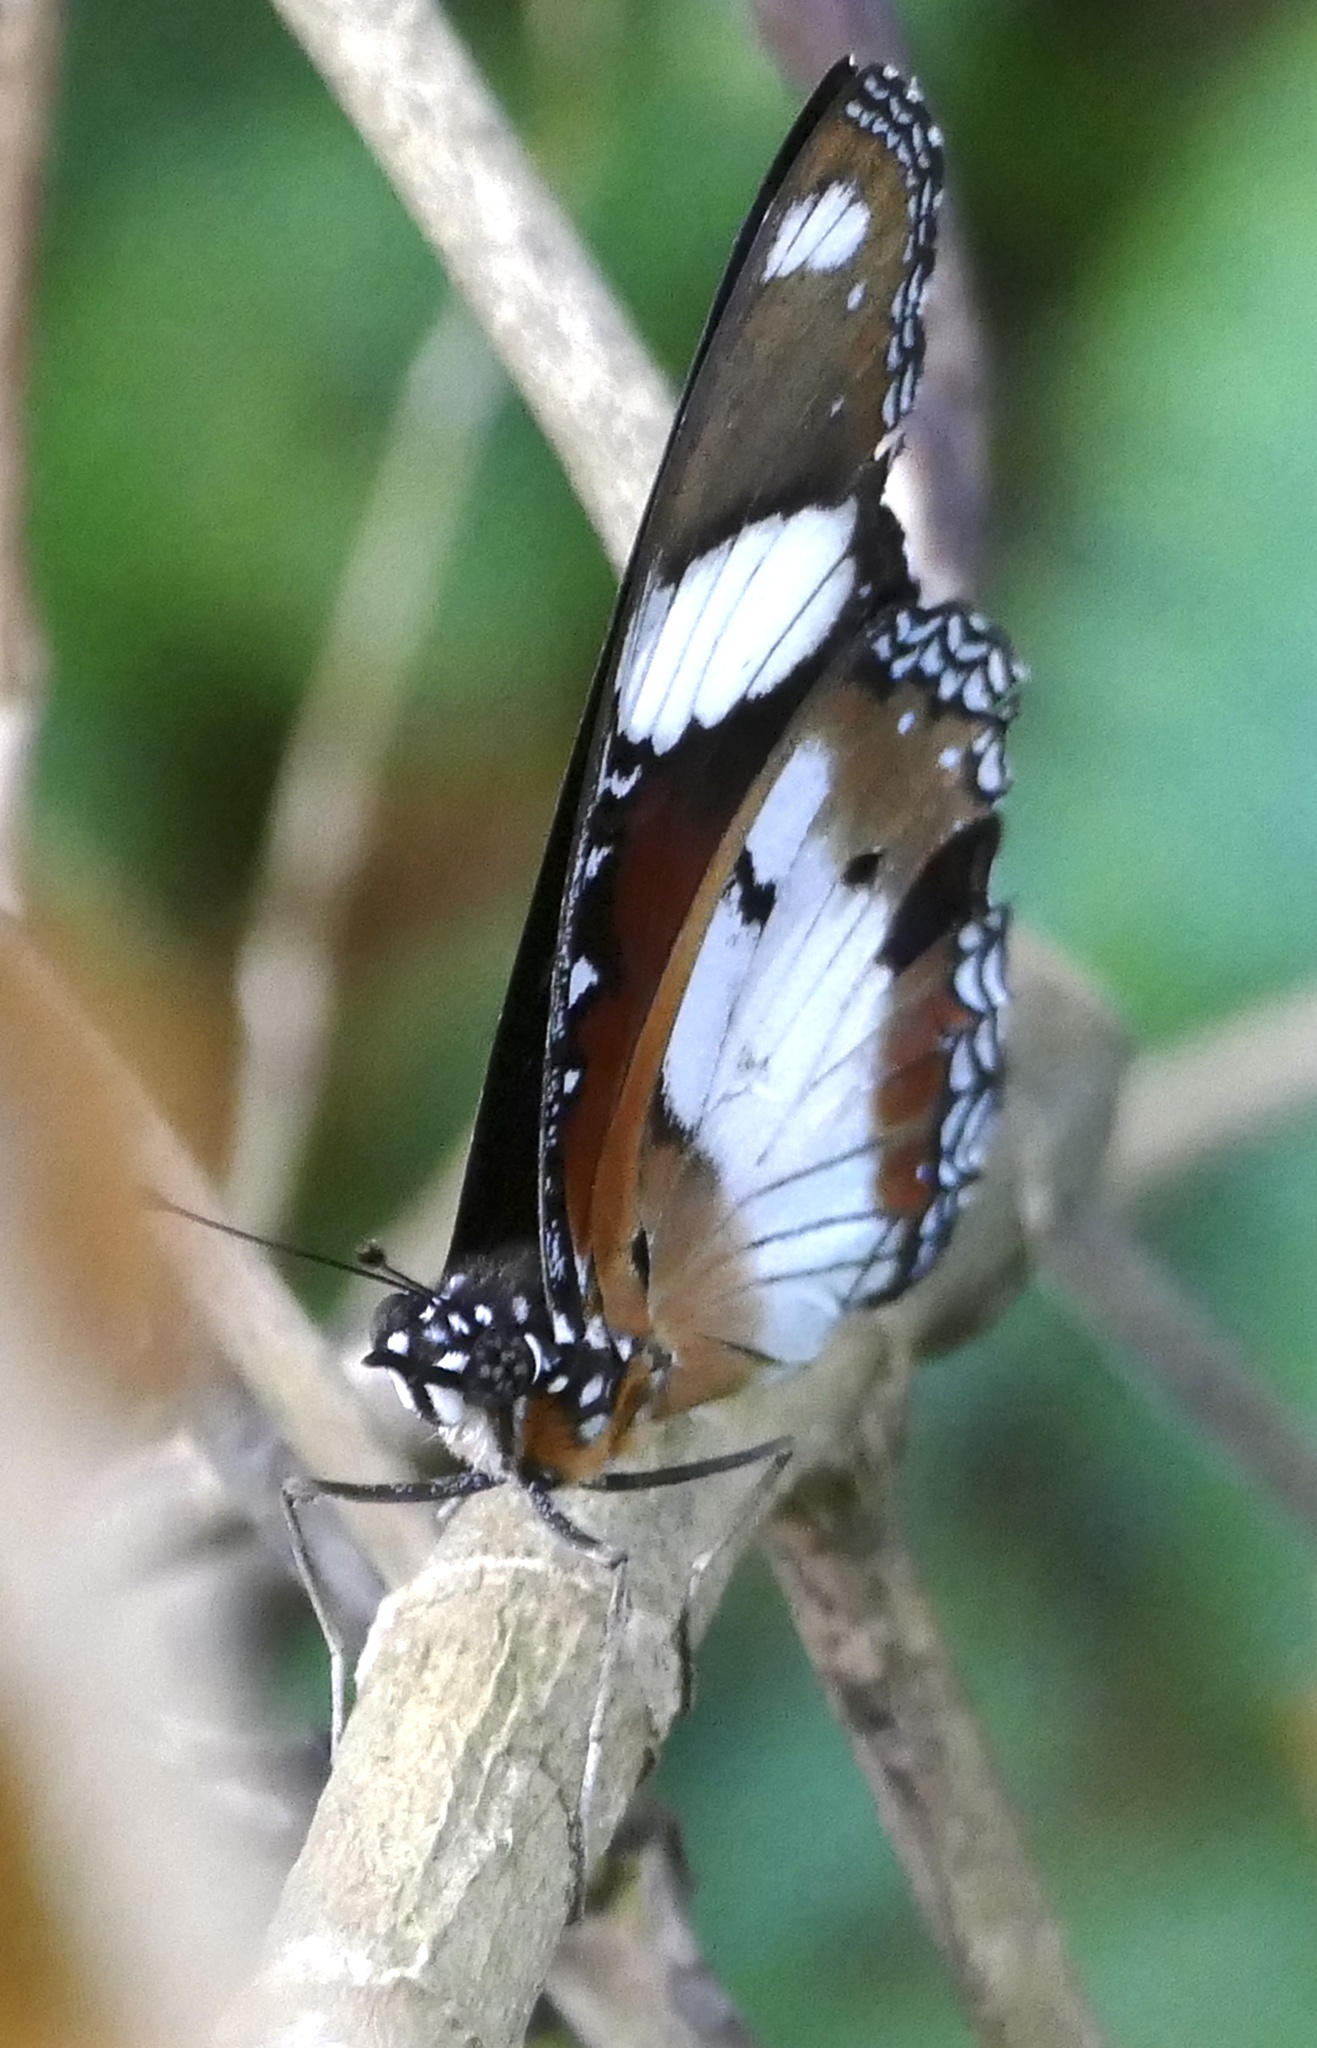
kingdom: Animalia
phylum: Arthropoda
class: Insecta
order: Lepidoptera
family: Nymphalidae
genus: Hypolimnas
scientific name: Hypolimnas misippus
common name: False plain tiger
